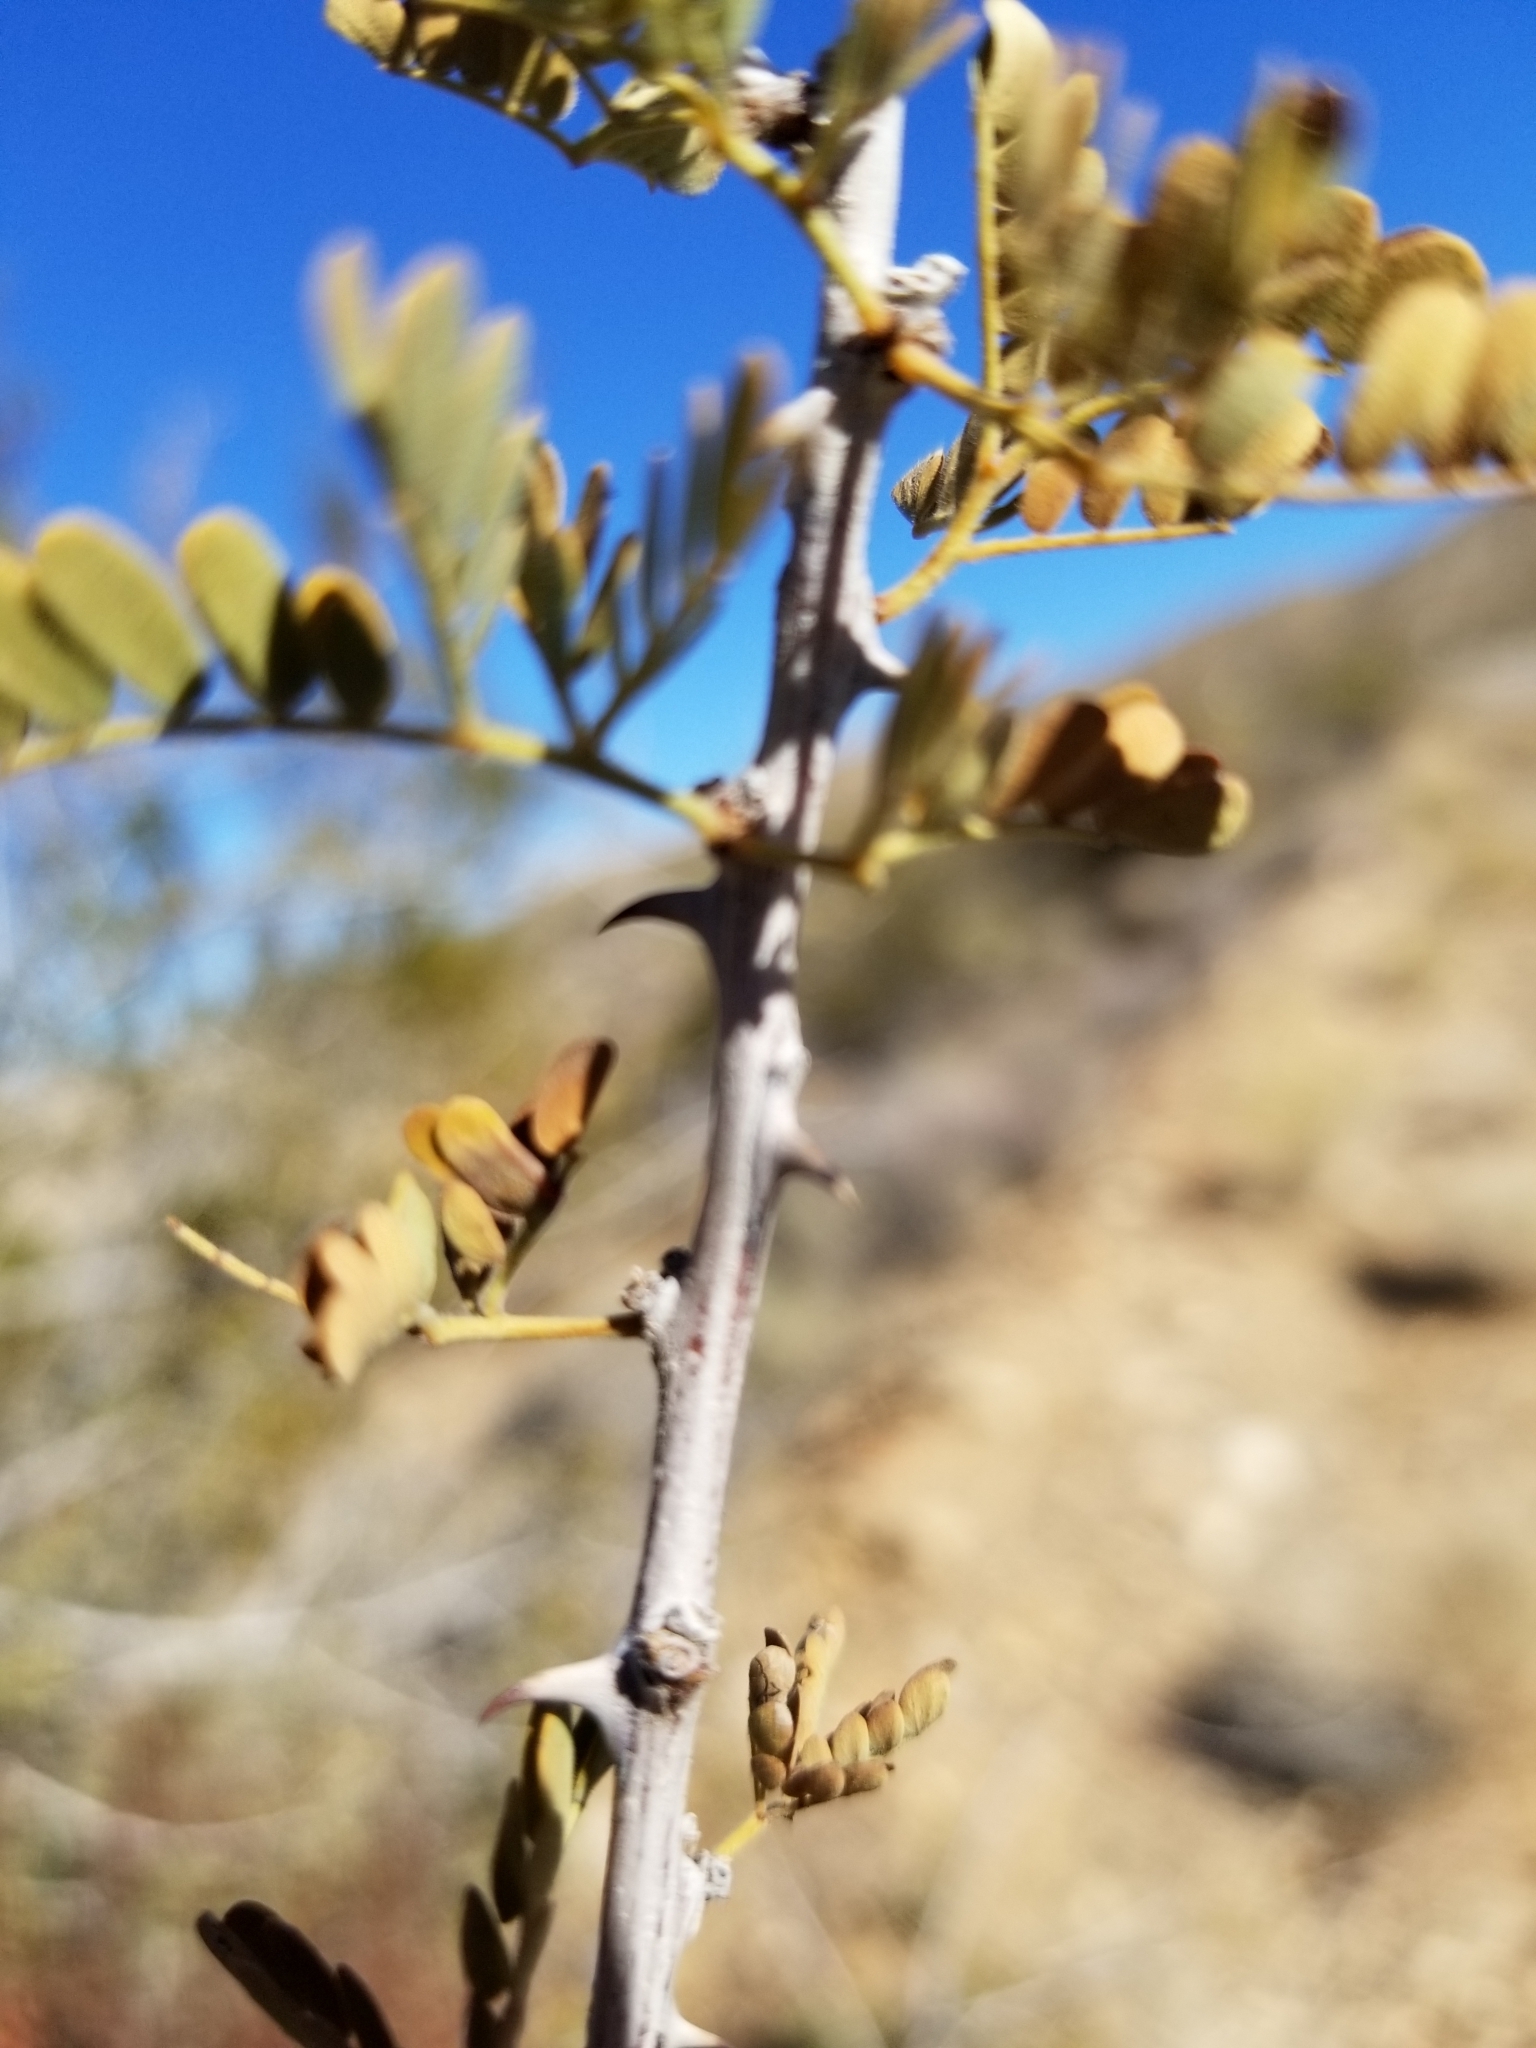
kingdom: Plantae
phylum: Tracheophyta
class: Magnoliopsida
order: Fabales
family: Fabaceae
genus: Senegalia
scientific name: Senegalia greggii
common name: Texas-mimosa
